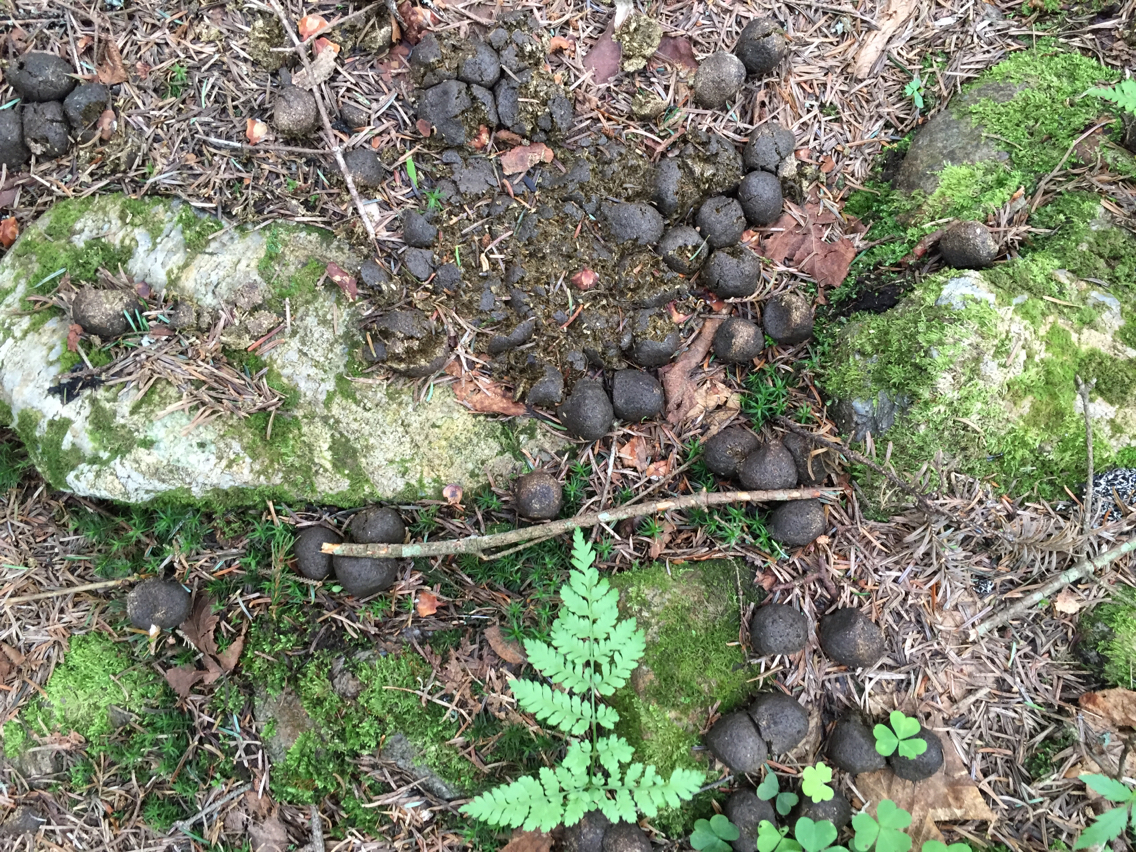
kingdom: Animalia
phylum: Chordata
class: Mammalia
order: Artiodactyla
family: Cervidae
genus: Alces
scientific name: Alces alces
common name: Moose
